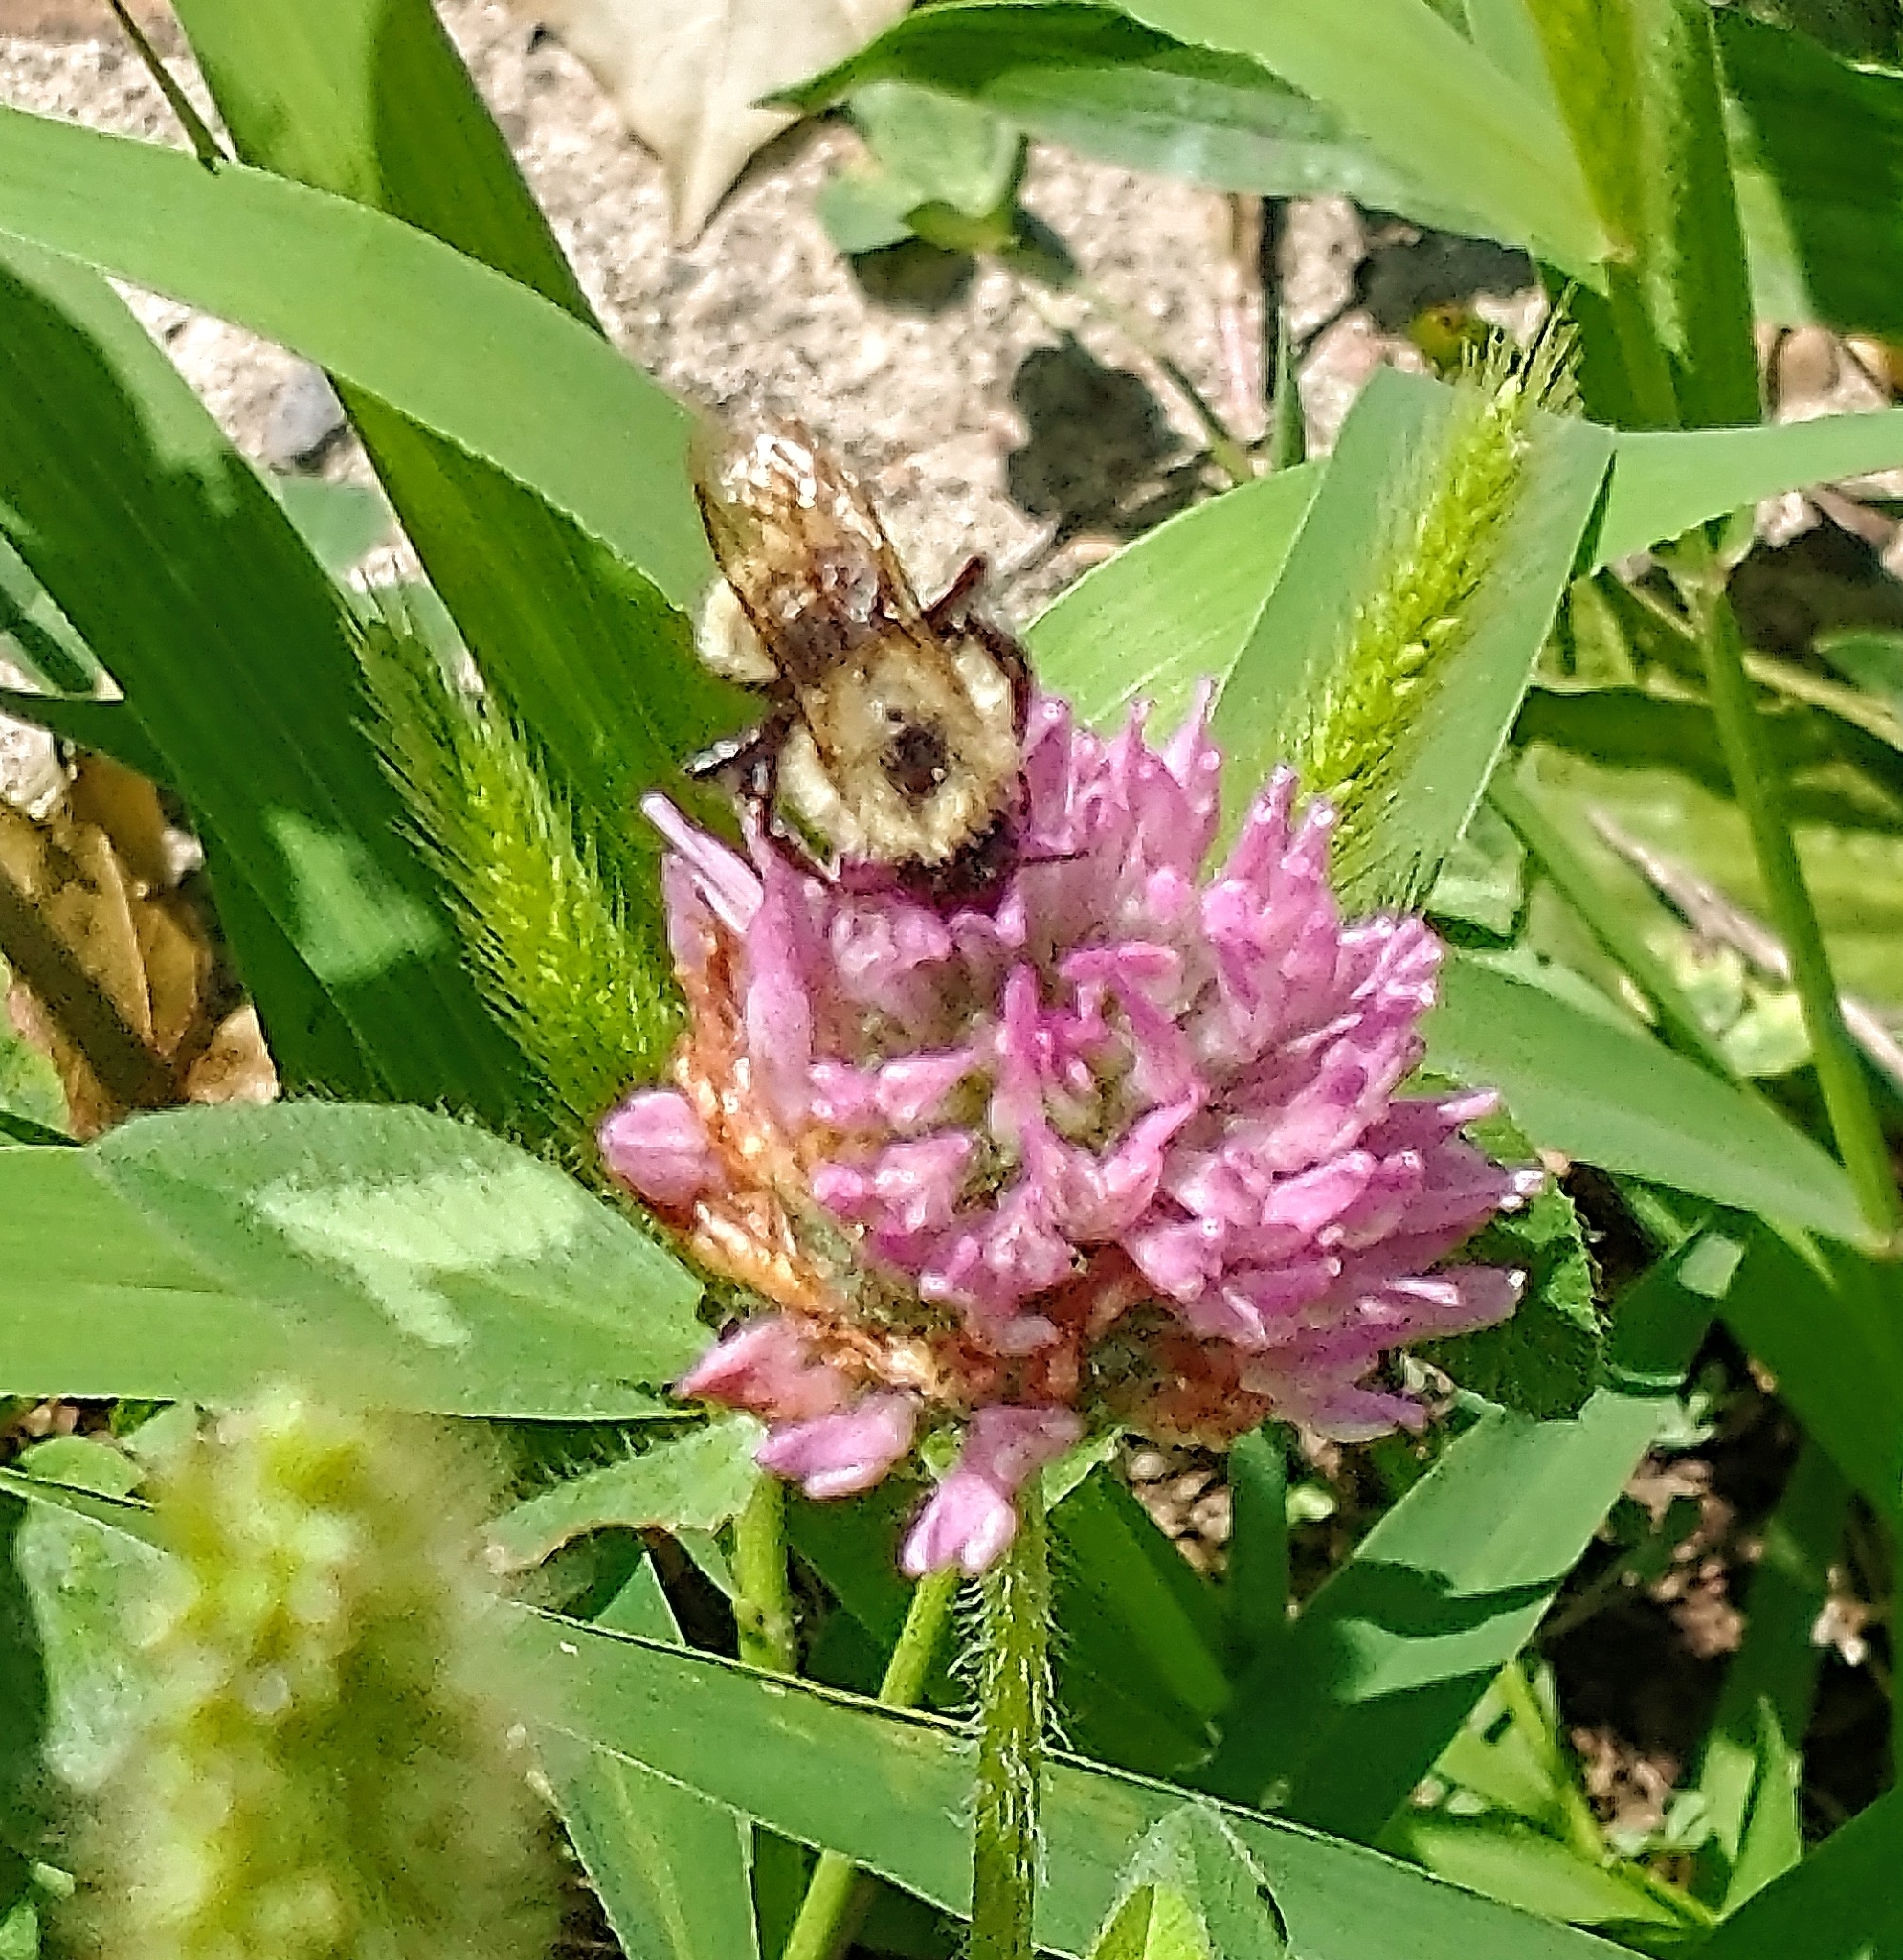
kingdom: Animalia
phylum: Arthropoda
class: Insecta
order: Hymenoptera
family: Apidae
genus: Pyrobombus
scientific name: Pyrobombus
